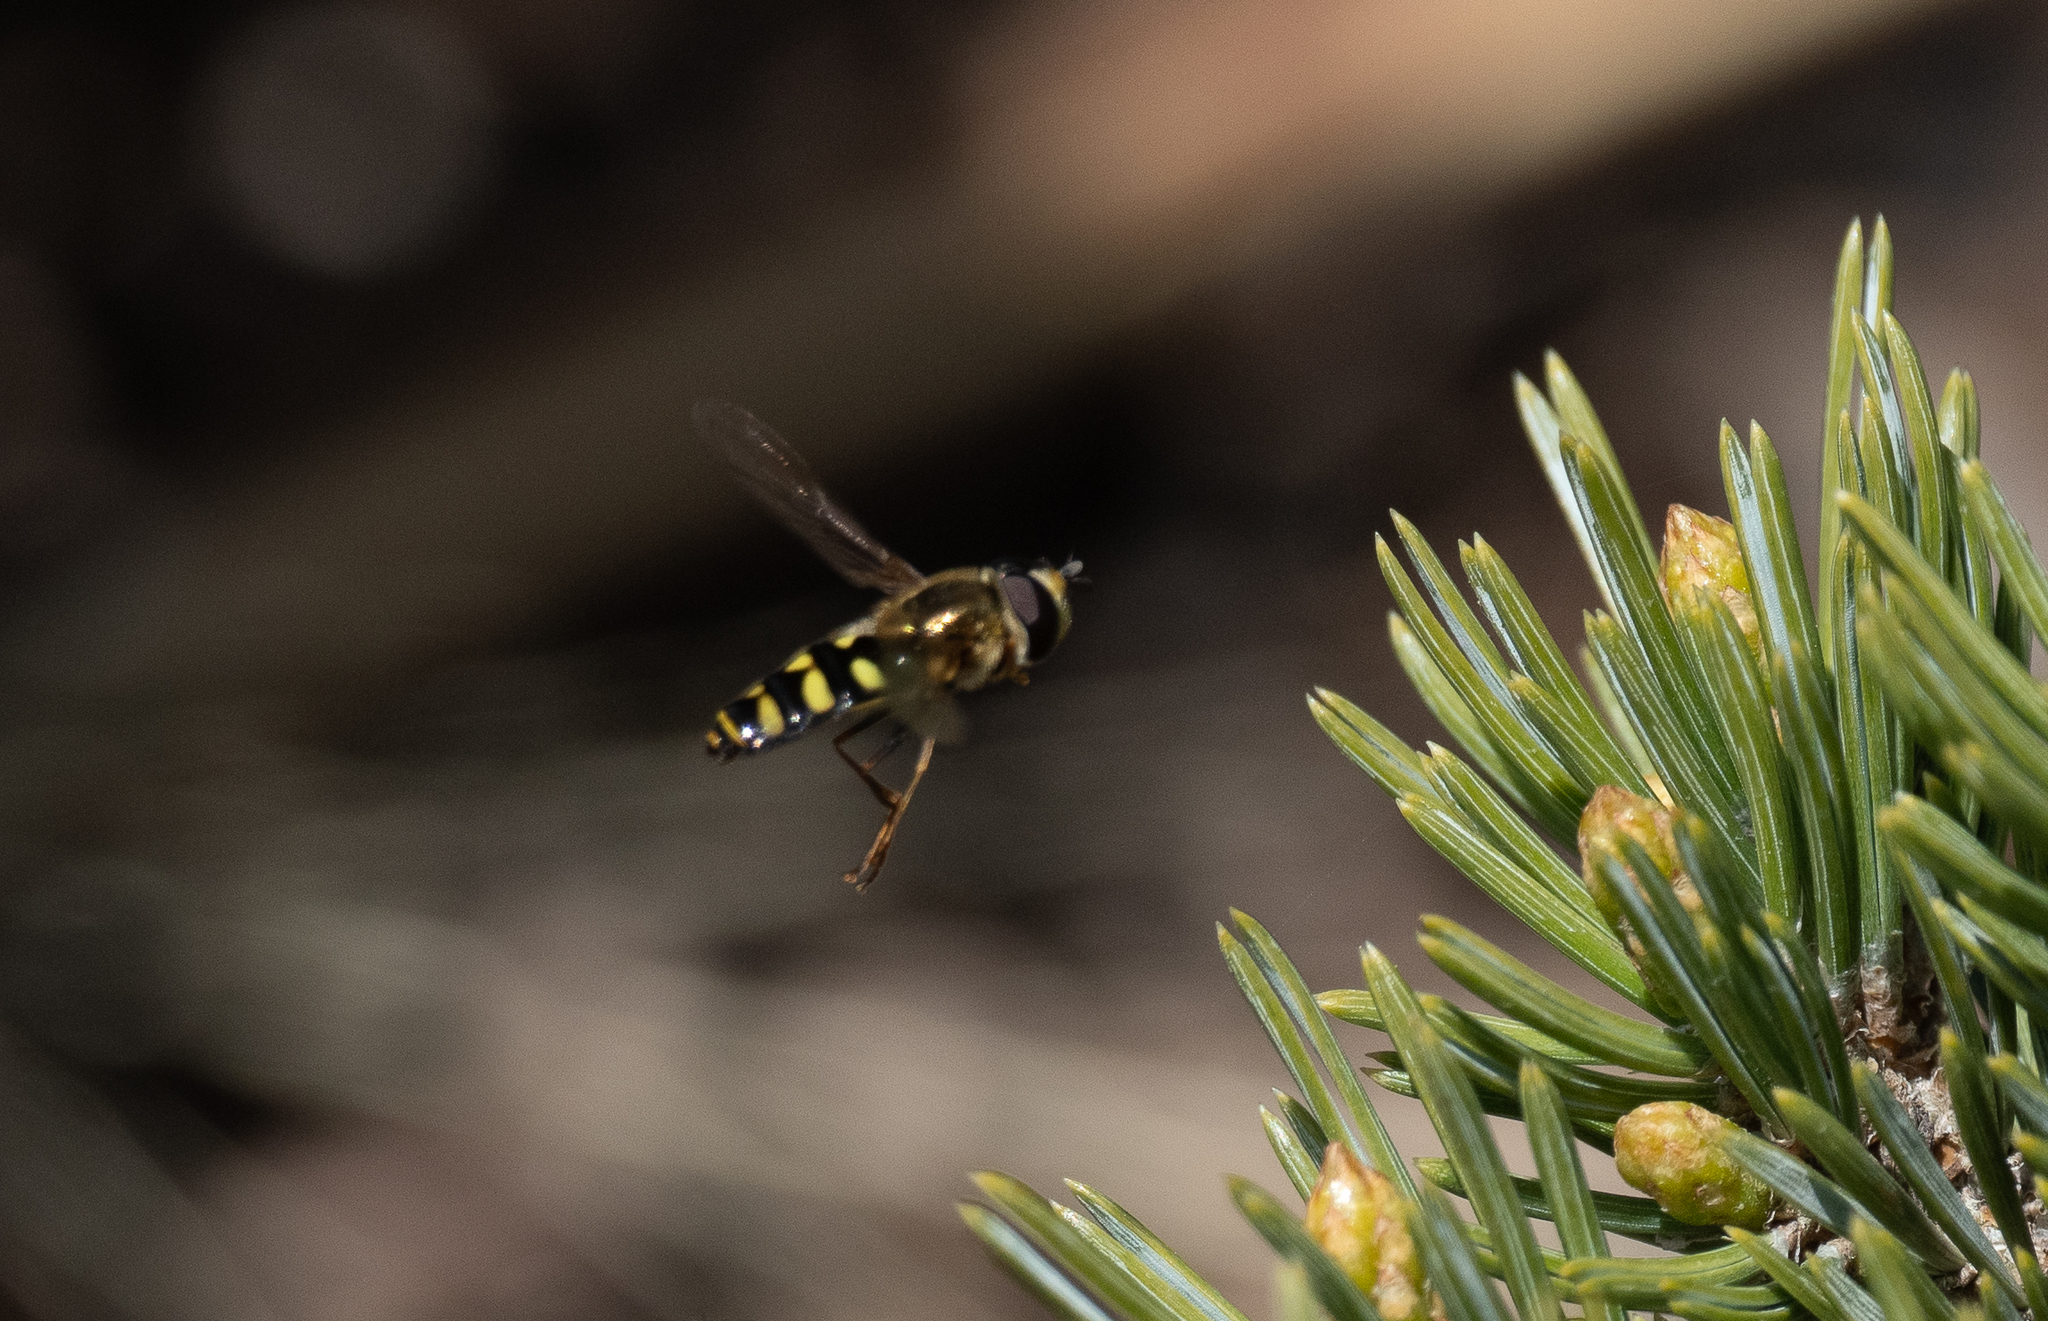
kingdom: Animalia
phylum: Arthropoda
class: Insecta
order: Diptera
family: Syrphidae
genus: Eupeodes
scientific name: Eupeodes fumipennis
